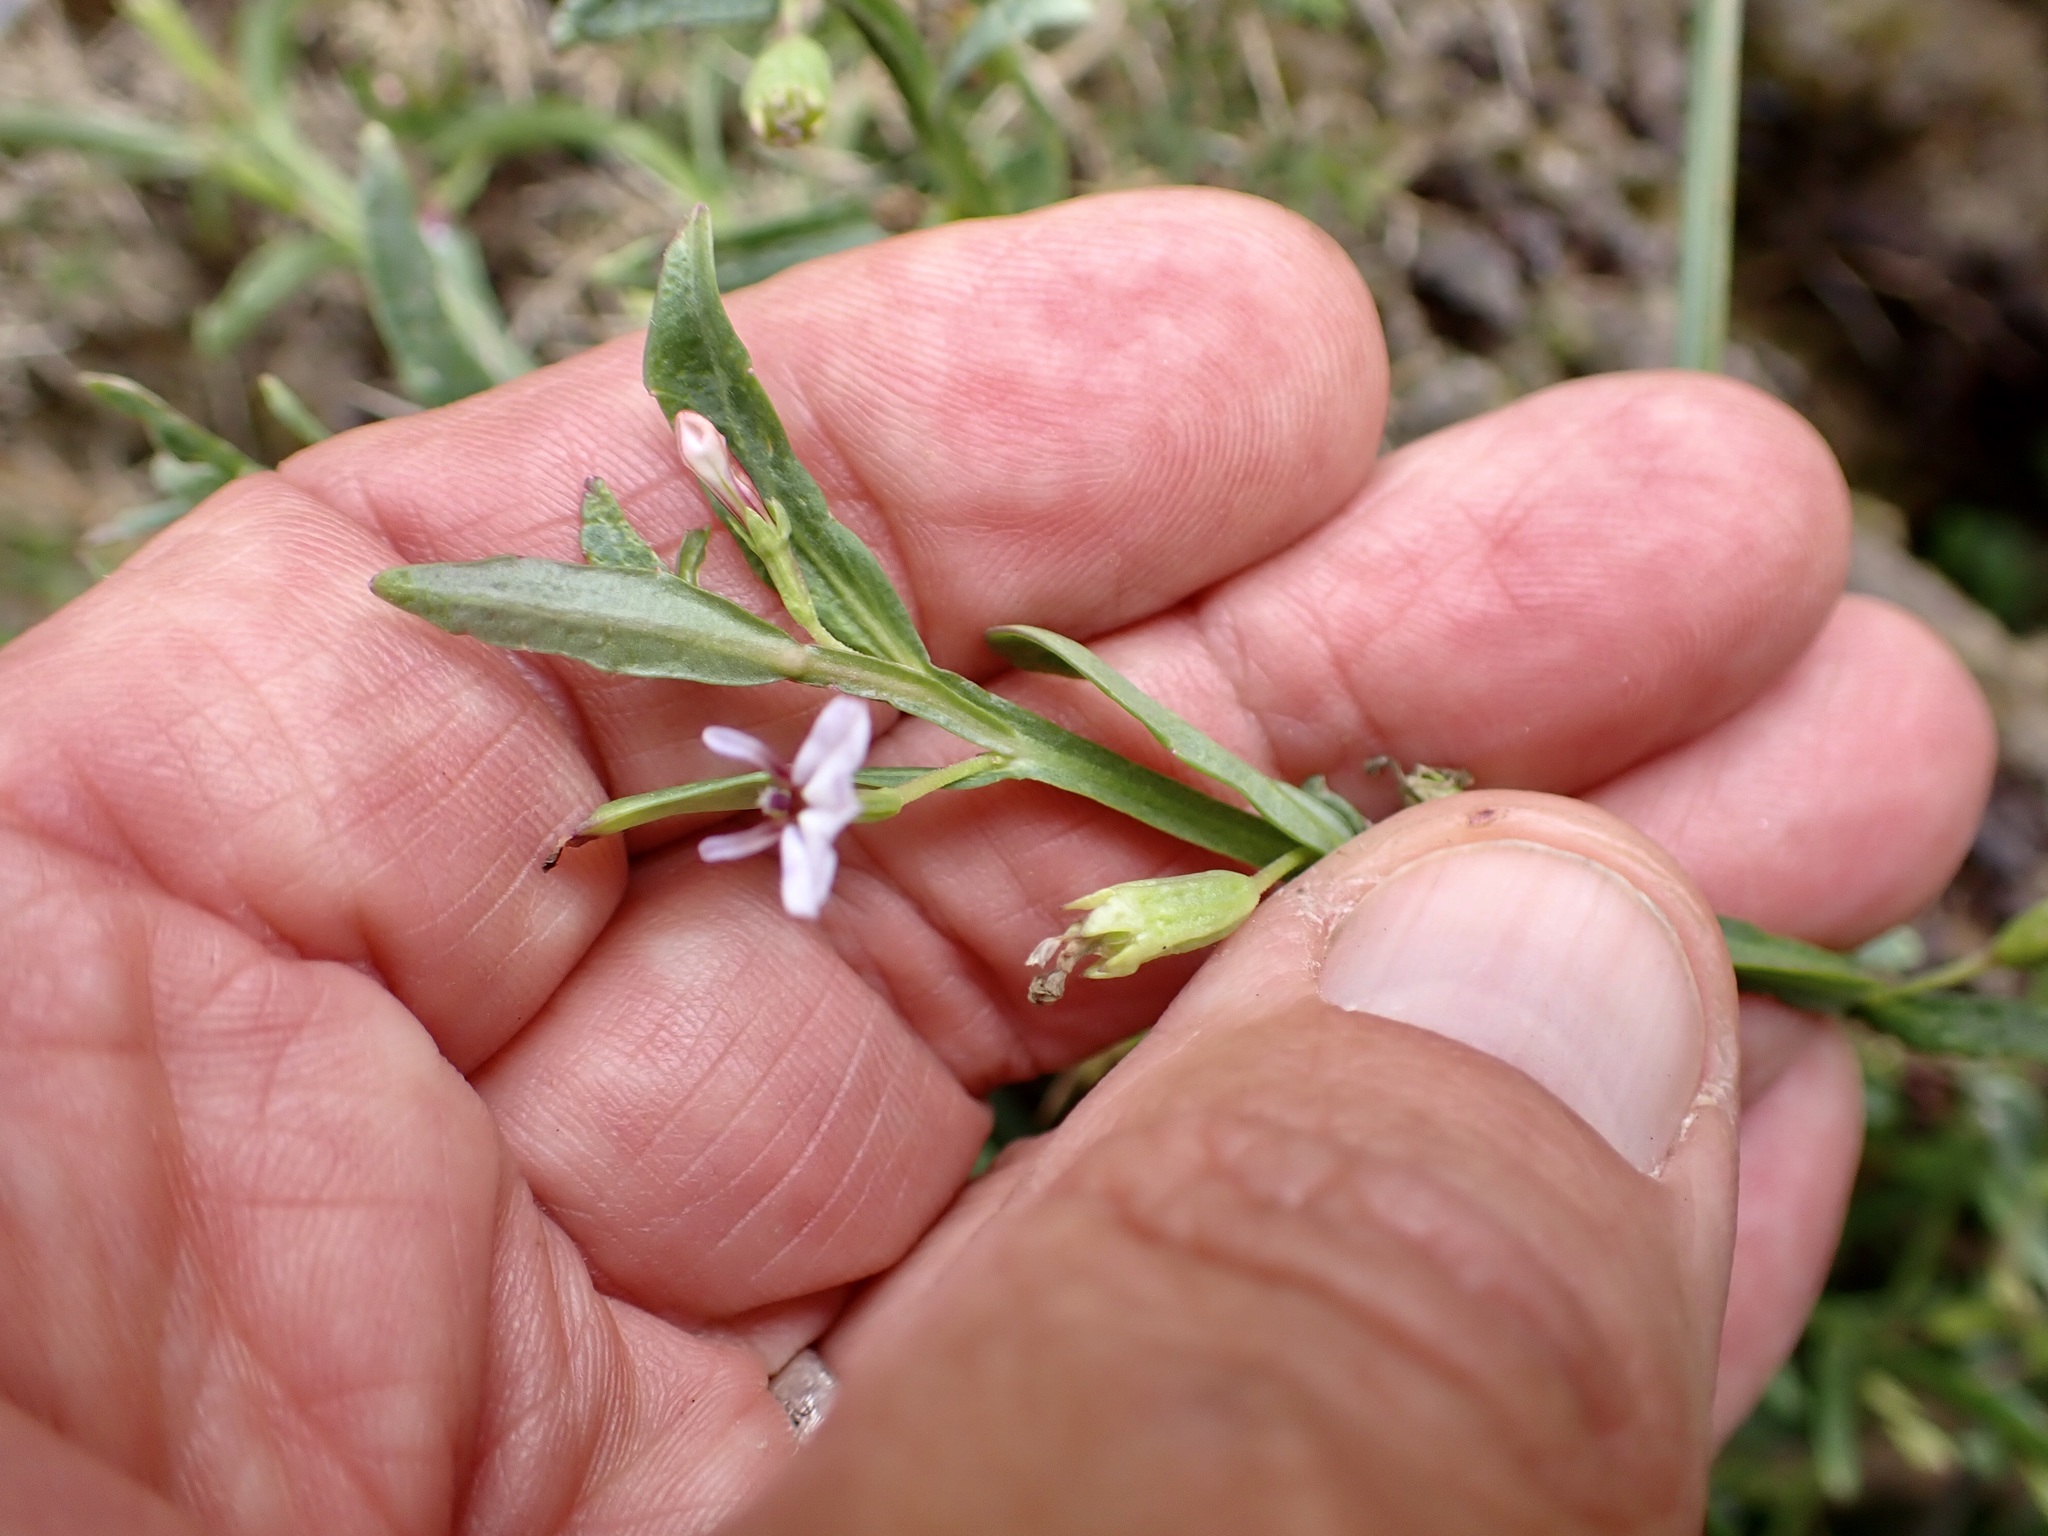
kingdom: Plantae
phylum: Tracheophyta
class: Magnoliopsida
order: Asterales
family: Campanulaceae
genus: Lobelia
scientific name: Lobelia anceps
